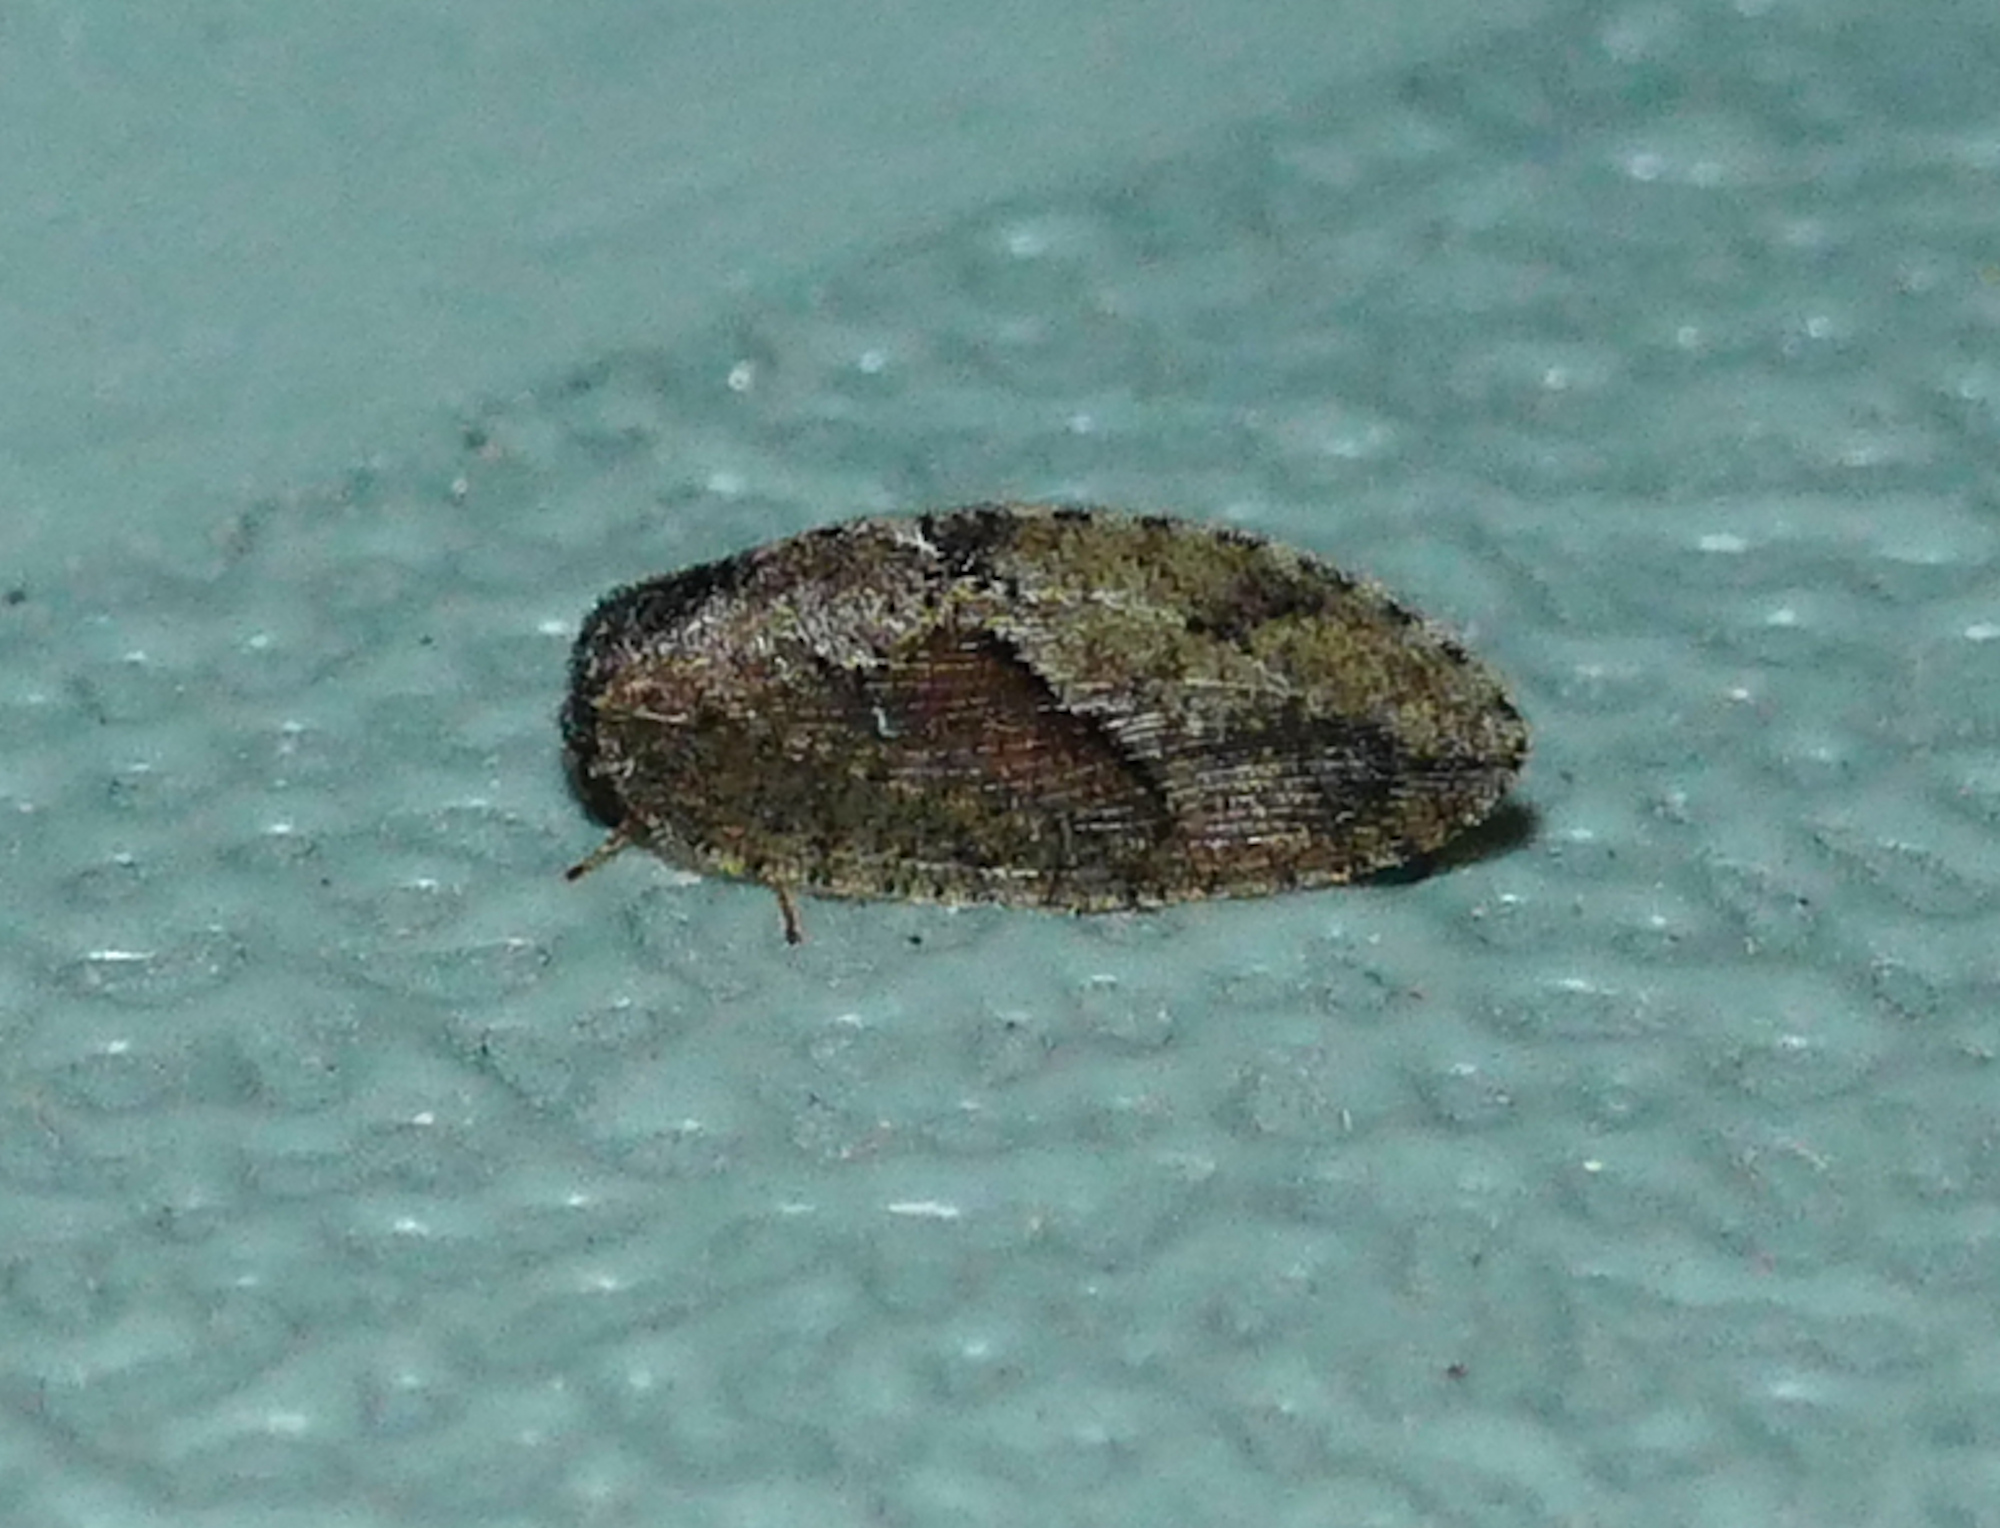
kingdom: Animalia
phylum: Arthropoda
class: Insecta
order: Neuroptera
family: Hemerobiidae
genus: Megalomus
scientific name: Megalomus moestus
